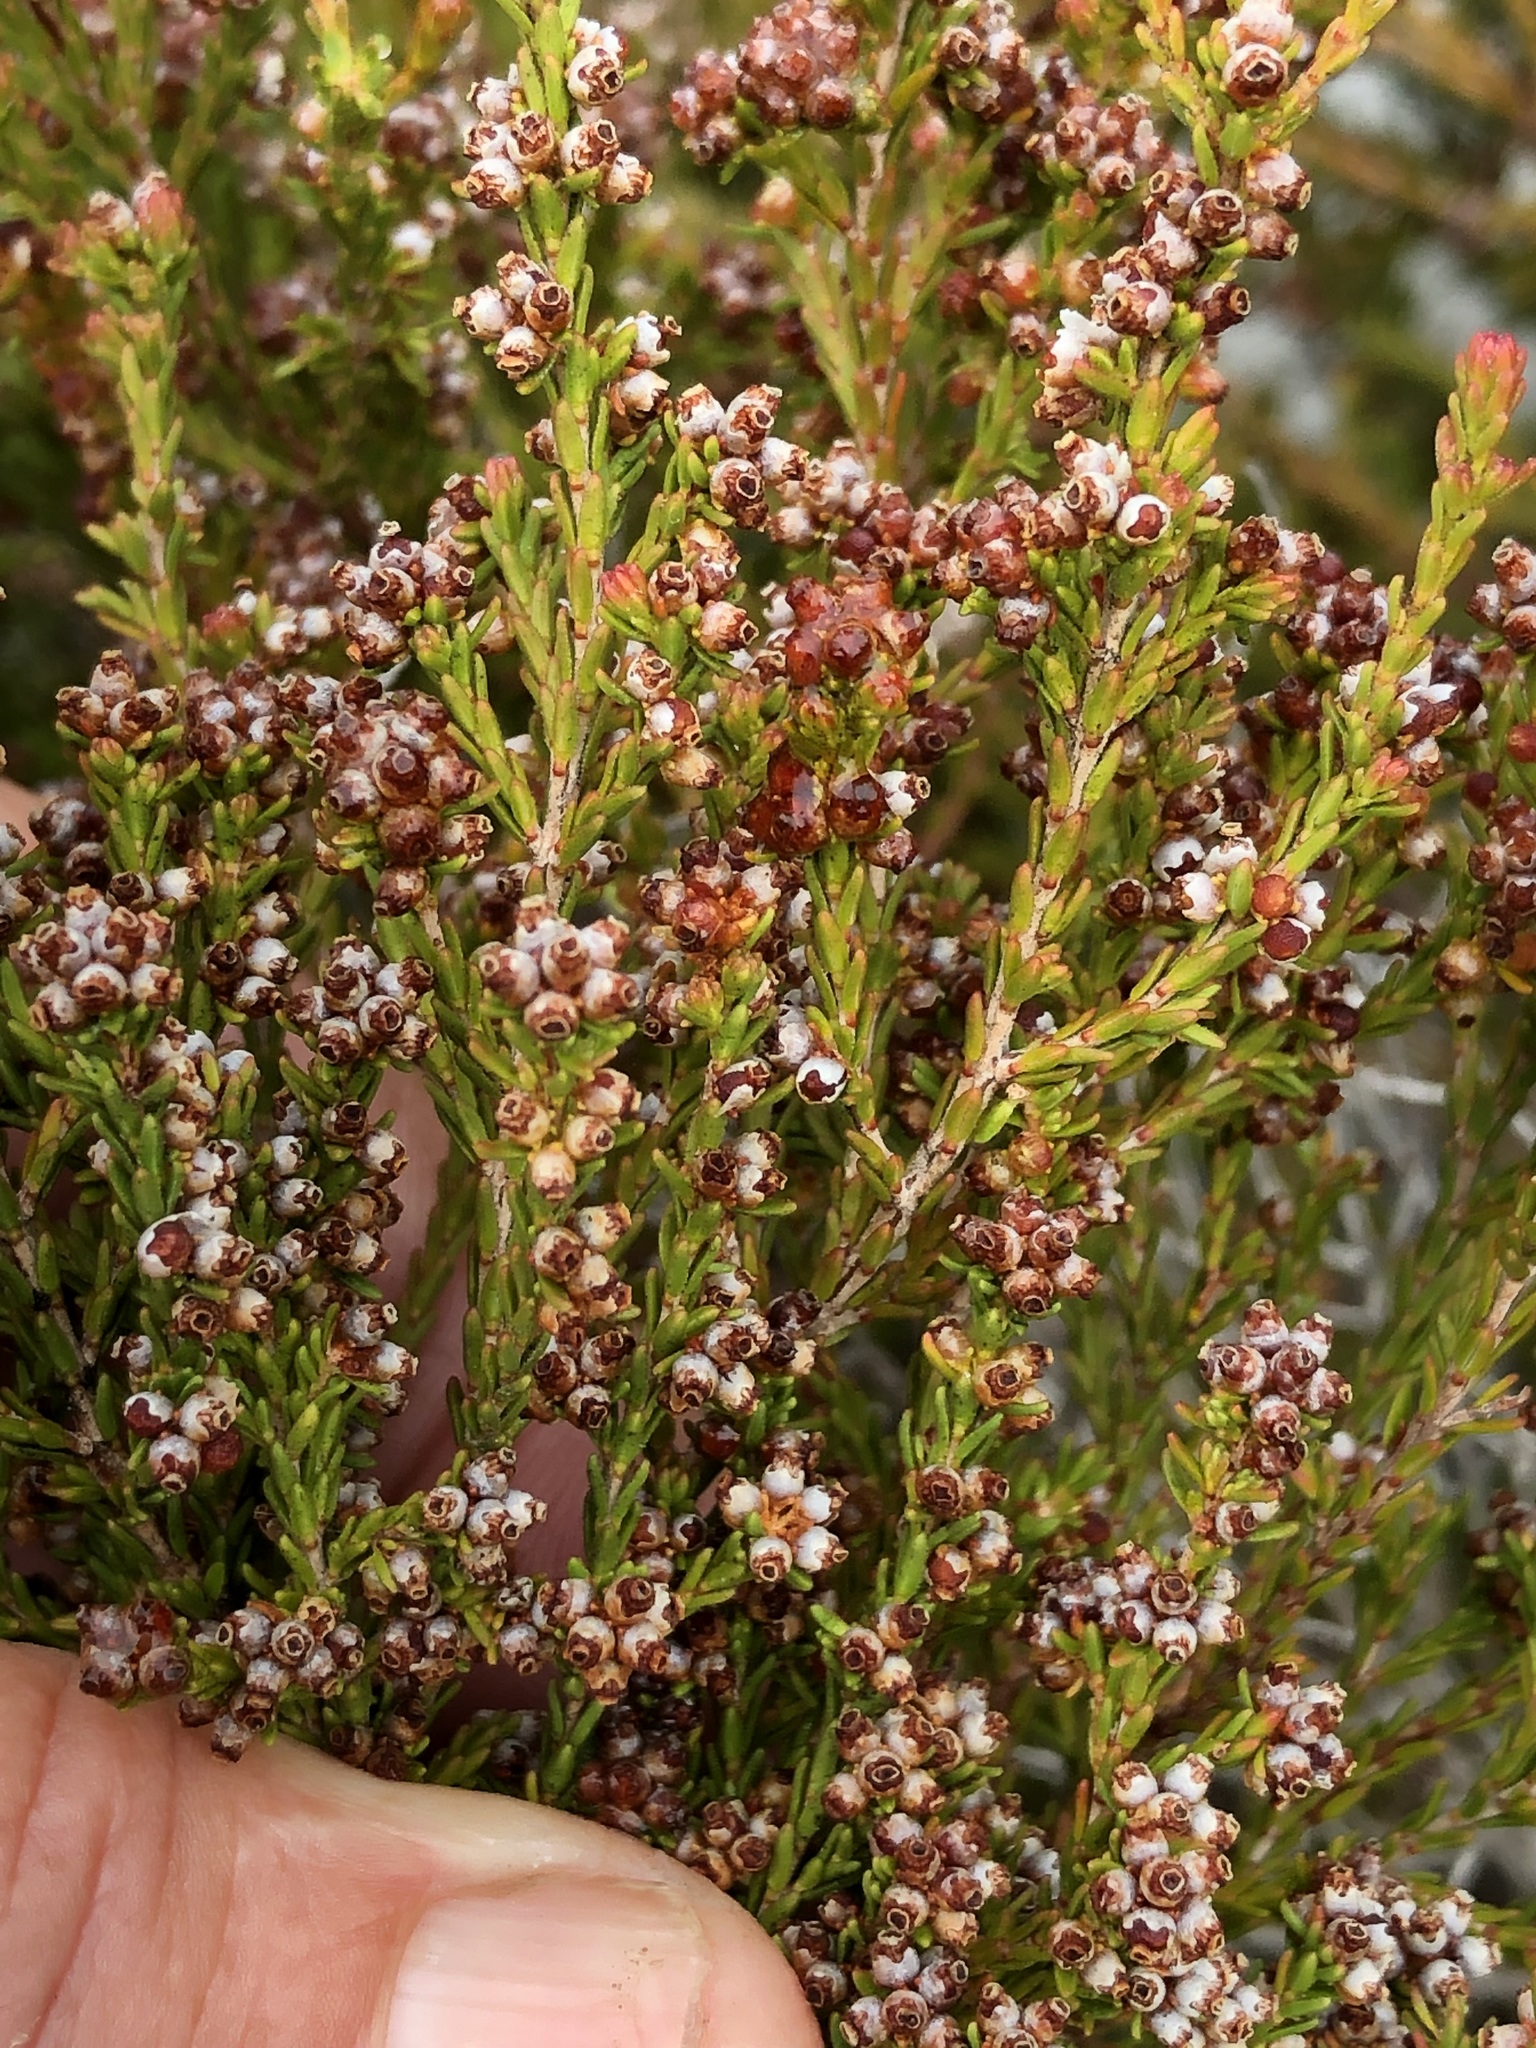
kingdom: Plantae
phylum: Tracheophyta
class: Magnoliopsida
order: Ericales
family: Ericaceae
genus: Erica
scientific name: Erica axillaris
